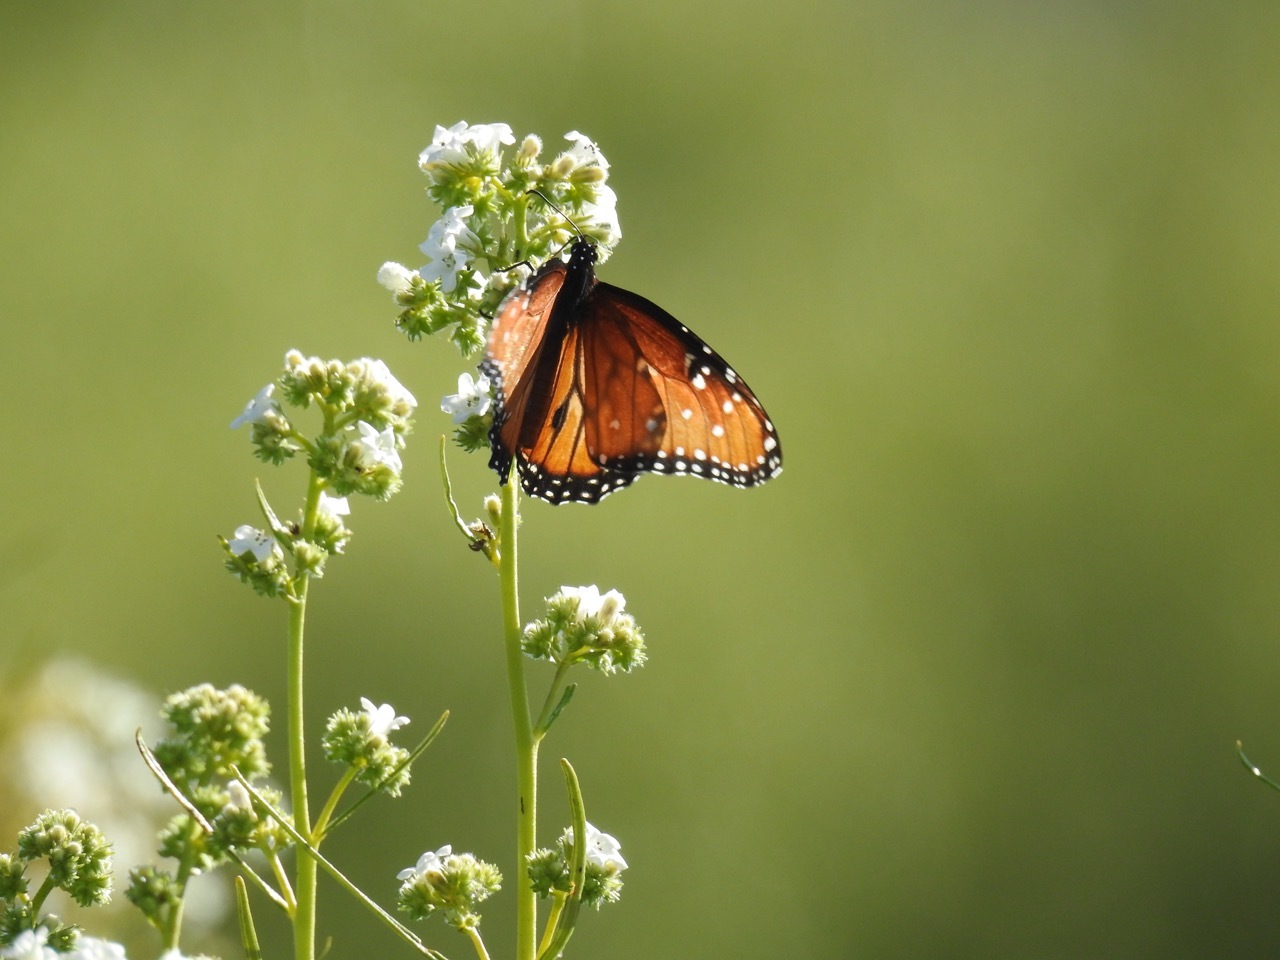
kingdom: Animalia
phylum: Arthropoda
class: Insecta
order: Lepidoptera
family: Nymphalidae
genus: Danaus
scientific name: Danaus gilippus
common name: Queen
